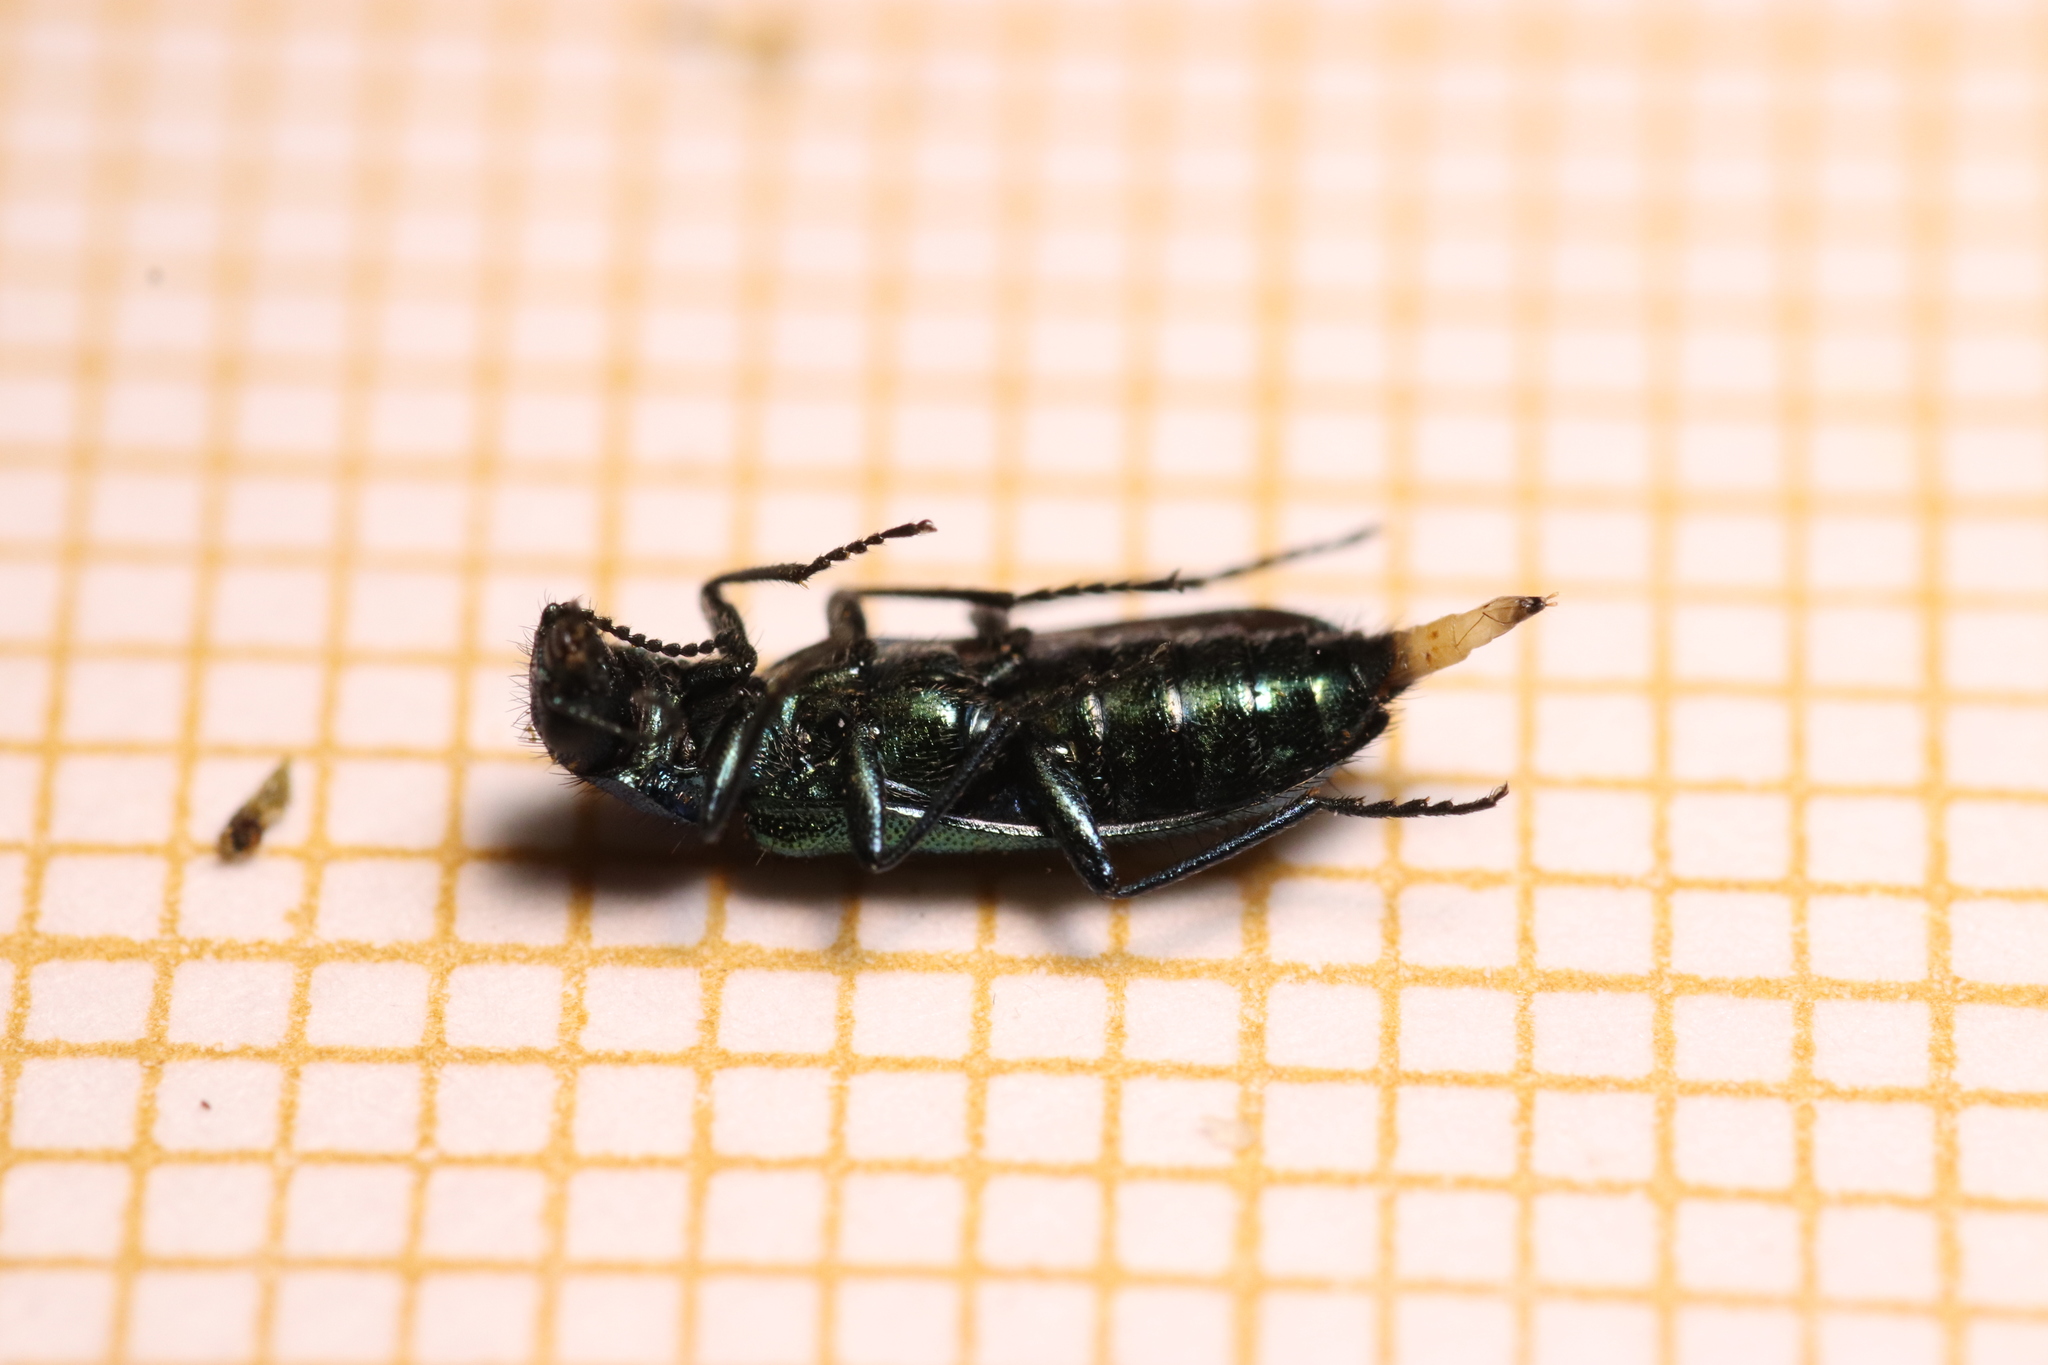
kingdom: Animalia
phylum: Arthropoda
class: Insecta
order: Coleoptera
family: Dasytidae
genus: Psilothrix
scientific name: Psilothrix viridicoerulea
